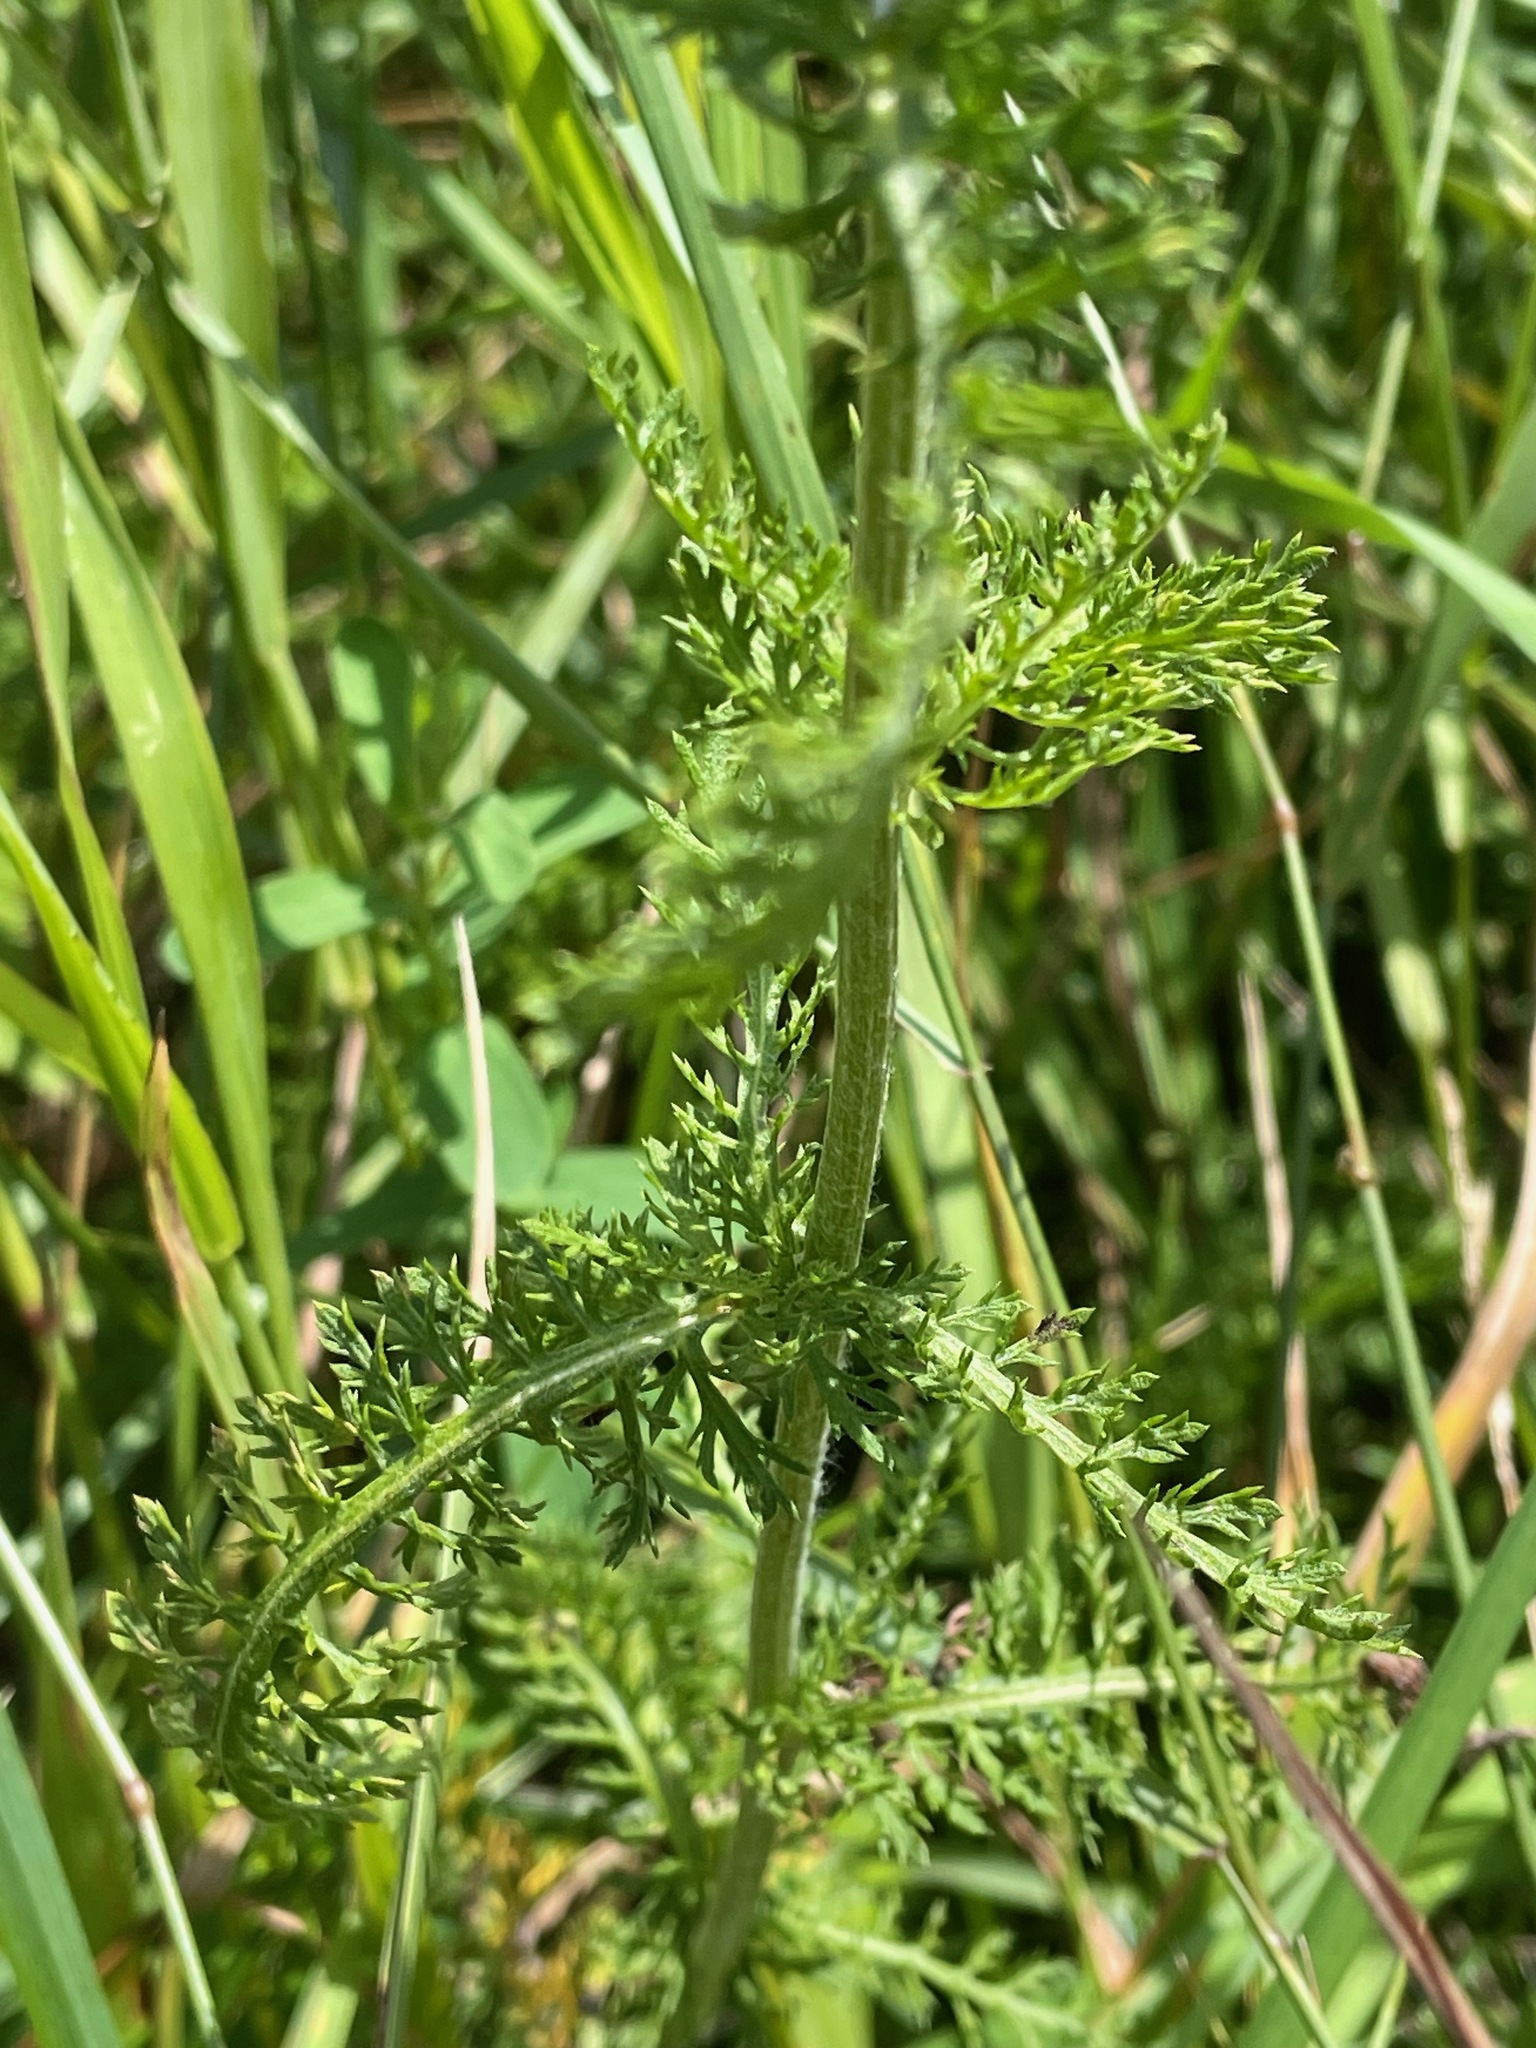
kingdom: Plantae
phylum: Tracheophyta
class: Magnoliopsida
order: Asterales
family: Asteraceae
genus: Achillea
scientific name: Achillea millefolium
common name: Yarrow
